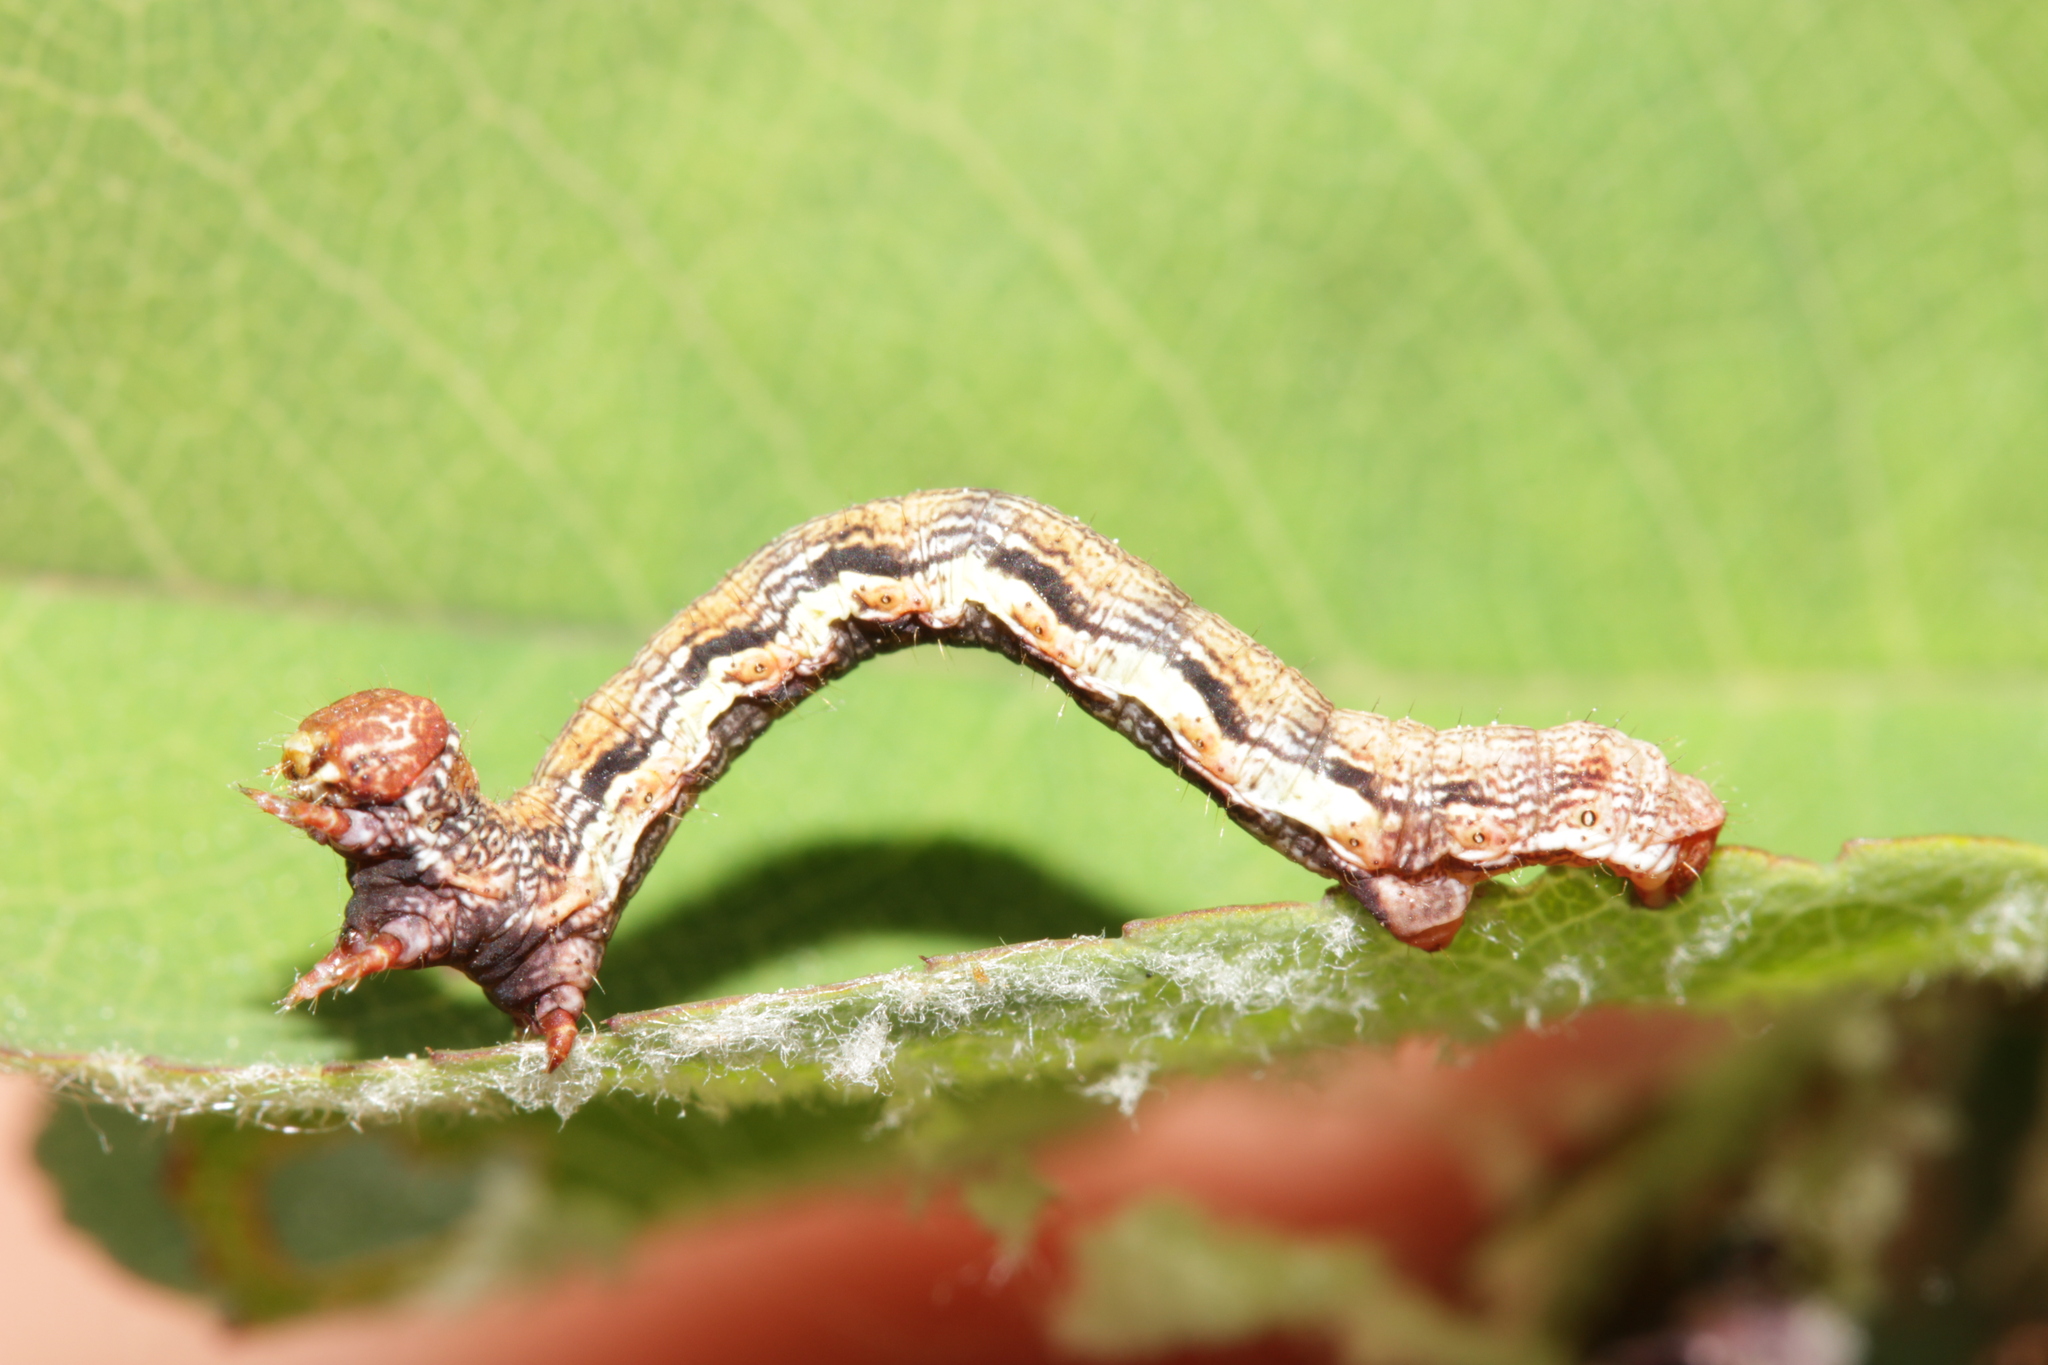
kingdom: Animalia
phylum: Arthropoda
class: Insecta
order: Lepidoptera
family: Geometridae
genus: Erannis
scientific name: Erannis defoliaria
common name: Mottled umber
